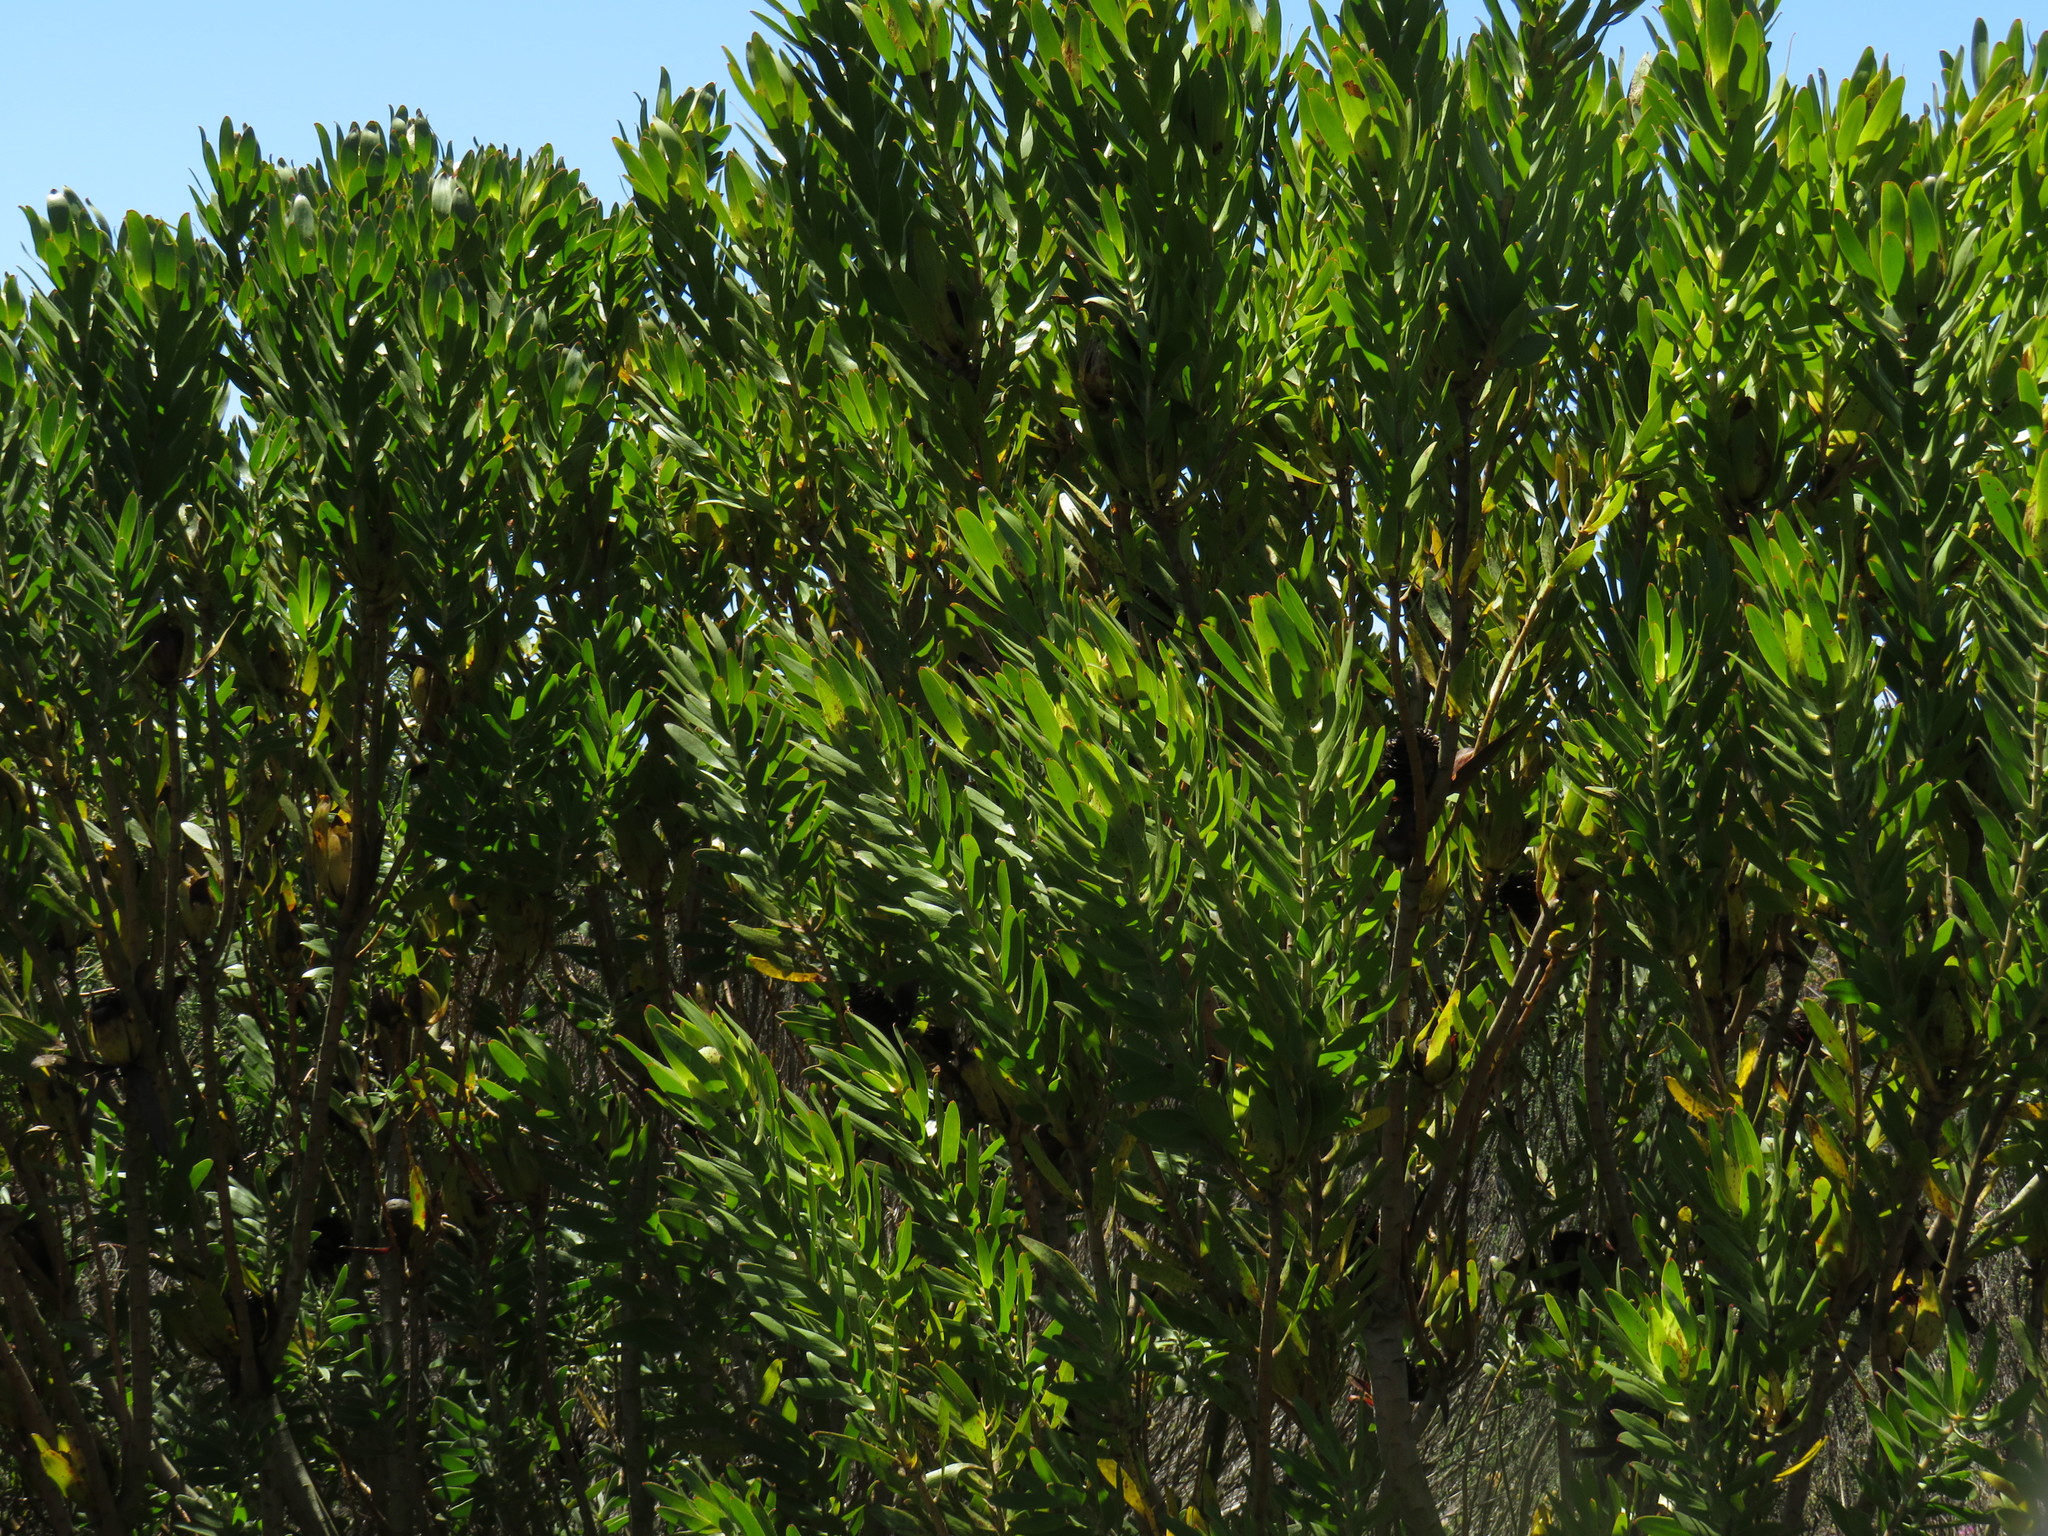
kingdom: Plantae
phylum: Tracheophyta
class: Magnoliopsida
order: Proteales
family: Proteaceae
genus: Leucadendron
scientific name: Leucadendron laureolum
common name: Golden sunshinebush
